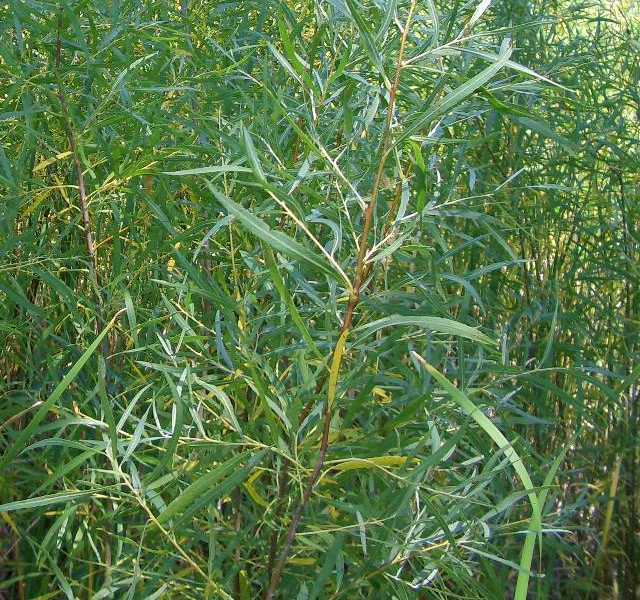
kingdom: Plantae
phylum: Tracheophyta
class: Magnoliopsida
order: Malpighiales
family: Salicaceae
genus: Salix
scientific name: Salix interior
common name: Sandbar willow
